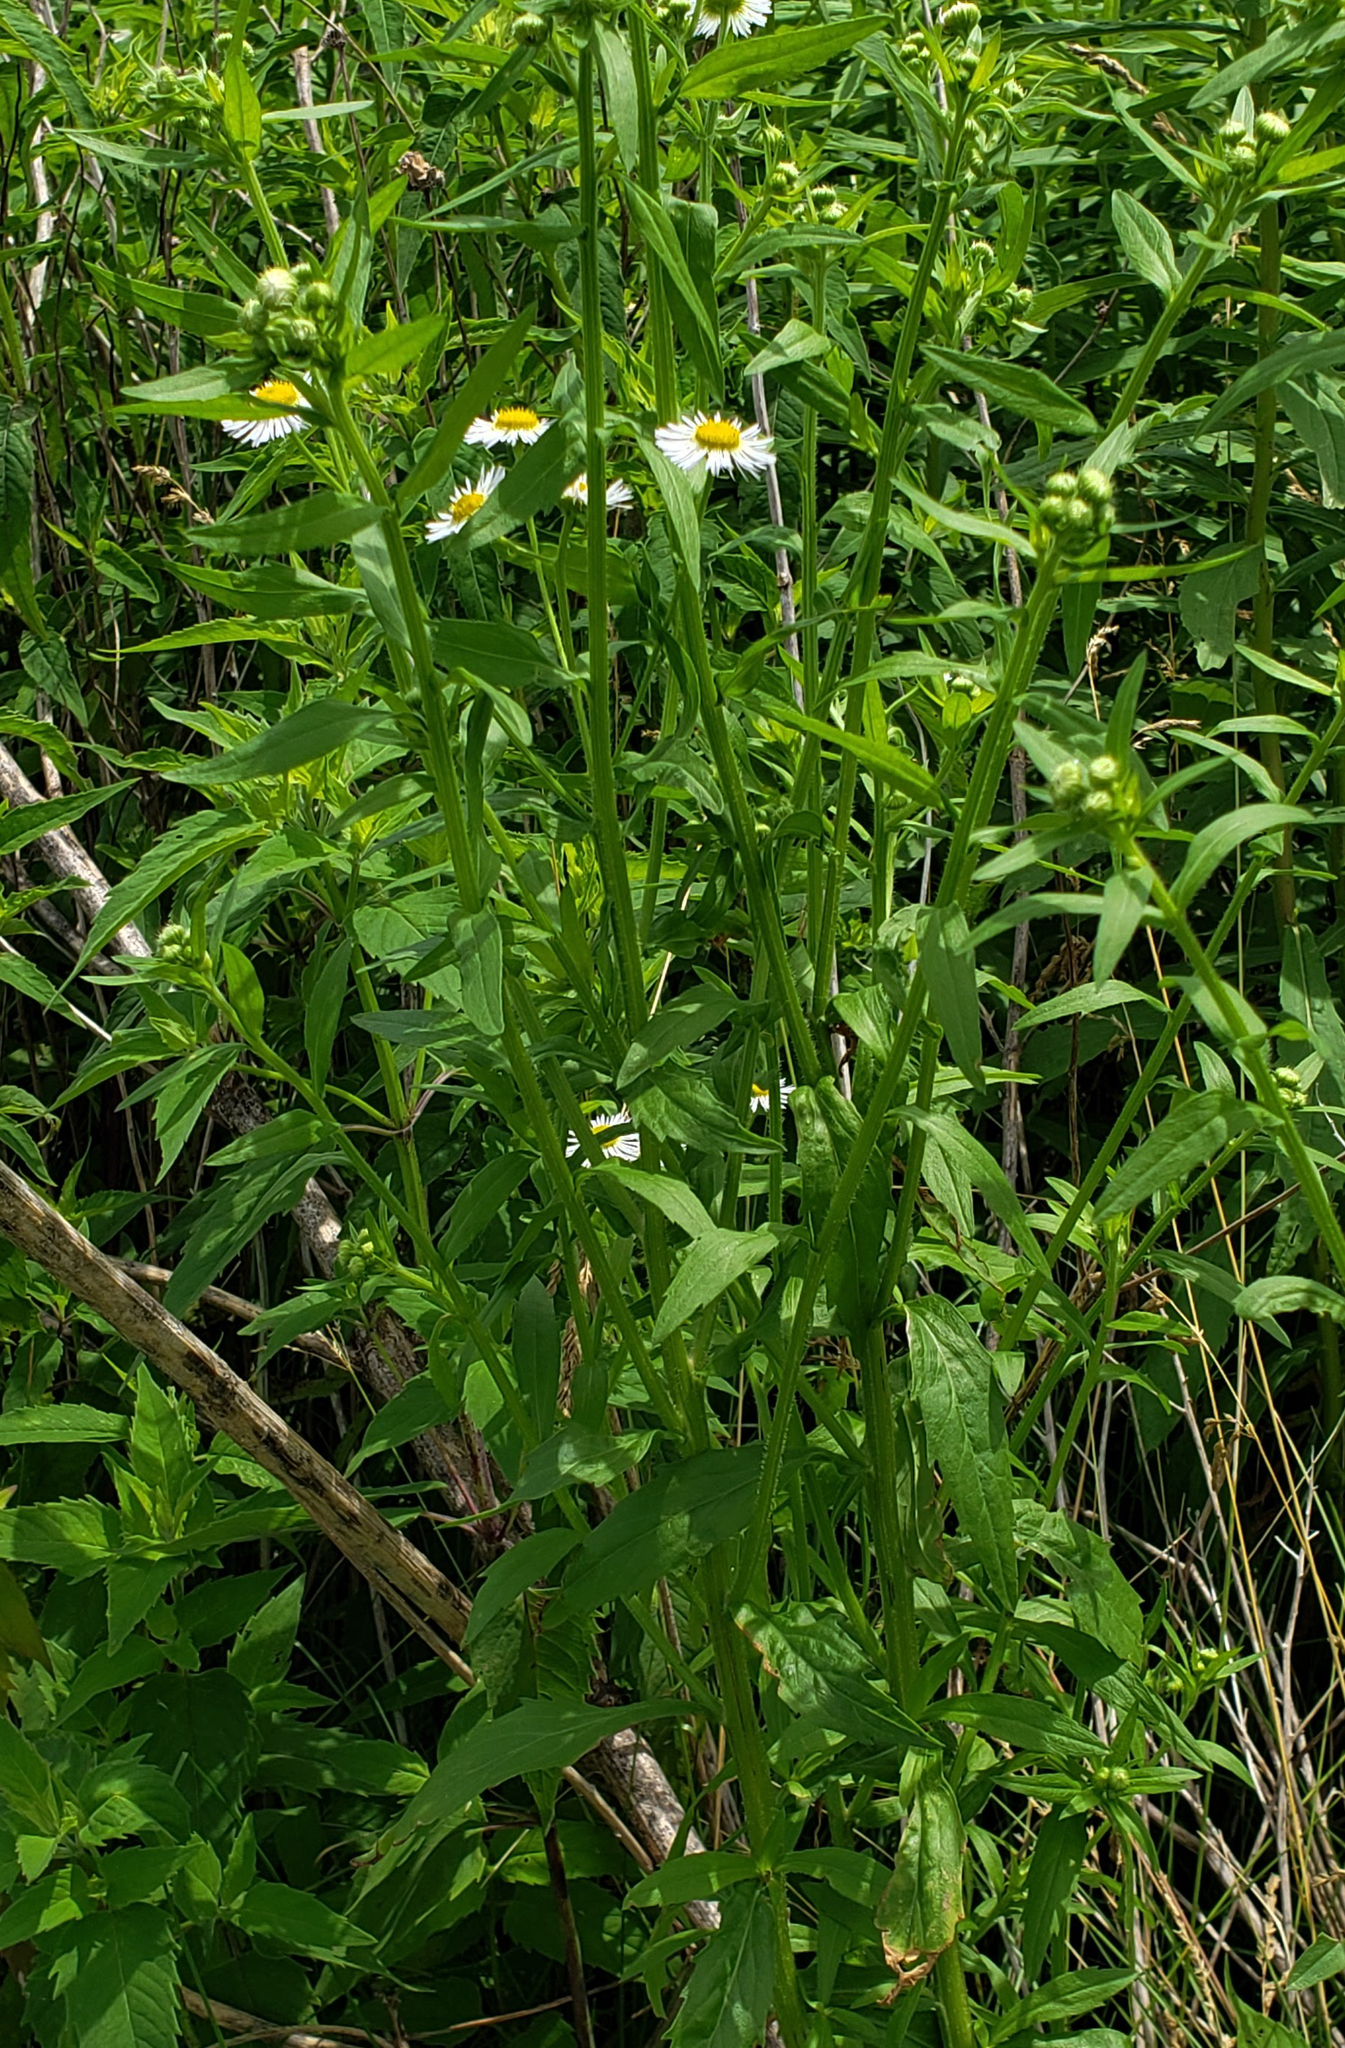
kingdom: Plantae
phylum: Tracheophyta
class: Magnoliopsida
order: Asterales
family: Asteraceae
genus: Erigeron
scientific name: Erigeron annuus
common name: Tall fleabane
